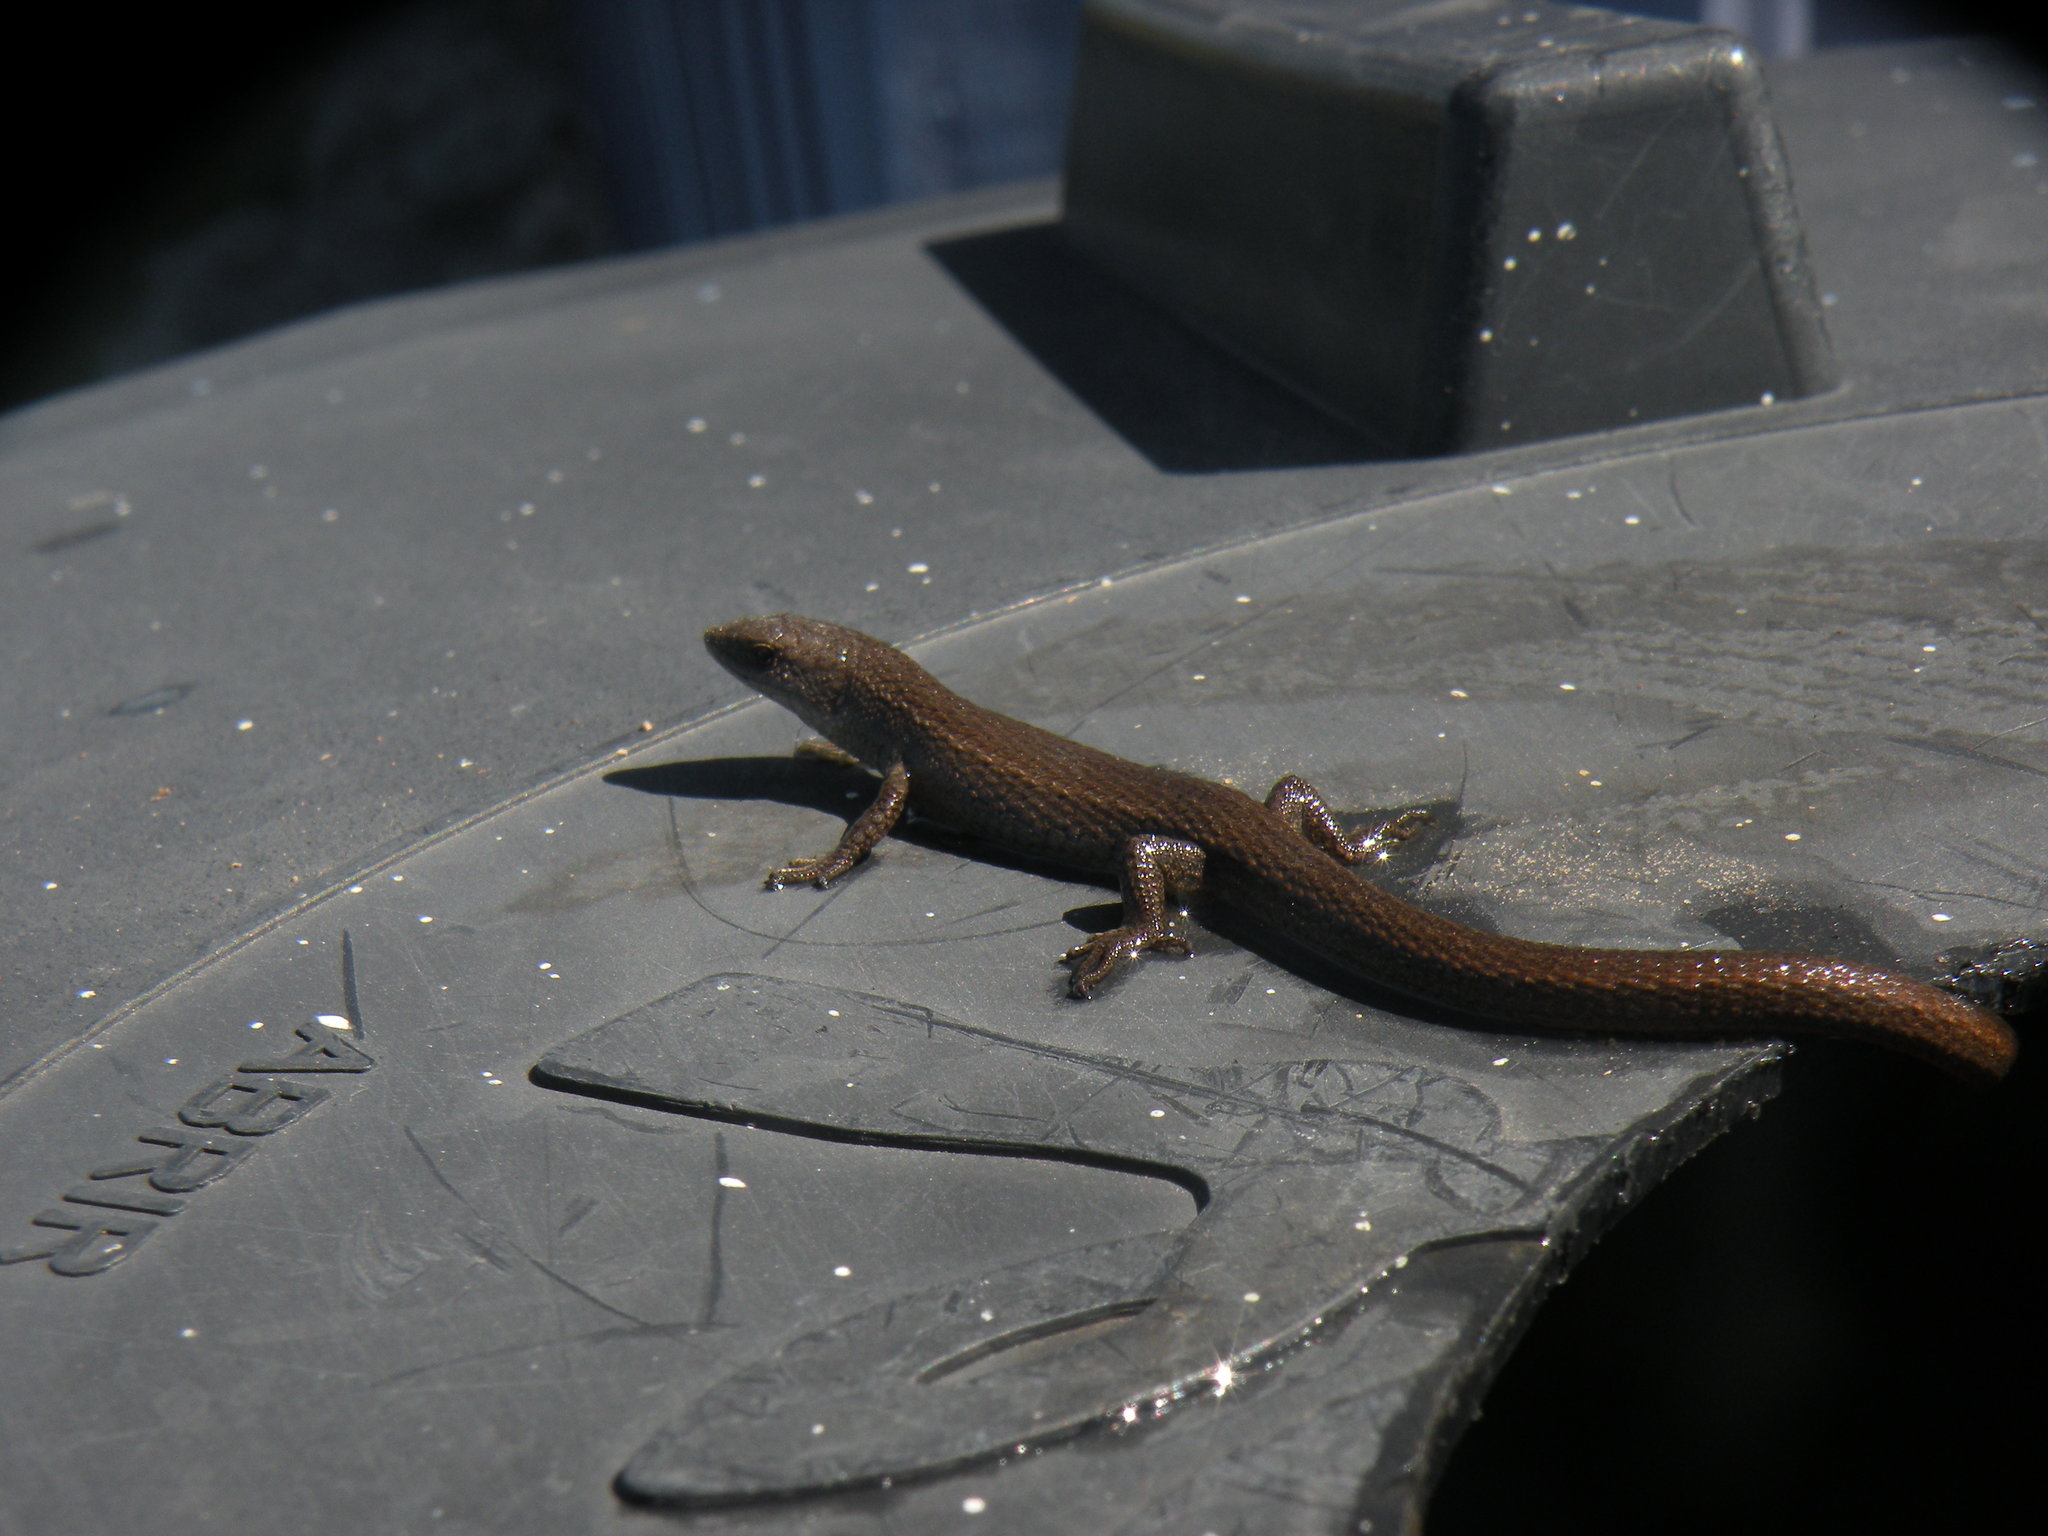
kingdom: Animalia
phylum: Chordata
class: Squamata
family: Gymnophthalmidae
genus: Cercosaura
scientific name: Cercosaura schreibersii
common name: Schreibers' many-fingered teiid
